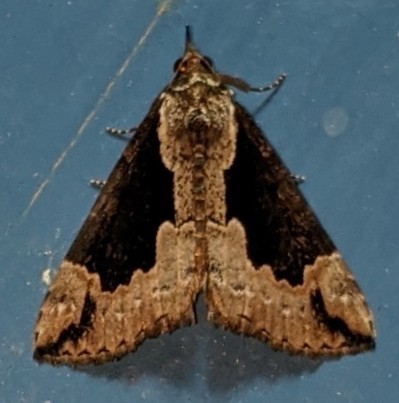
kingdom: Animalia
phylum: Arthropoda
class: Insecta
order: Lepidoptera
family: Erebidae
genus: Hypena
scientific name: Hypena baltimoralis
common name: Baltimore snout
